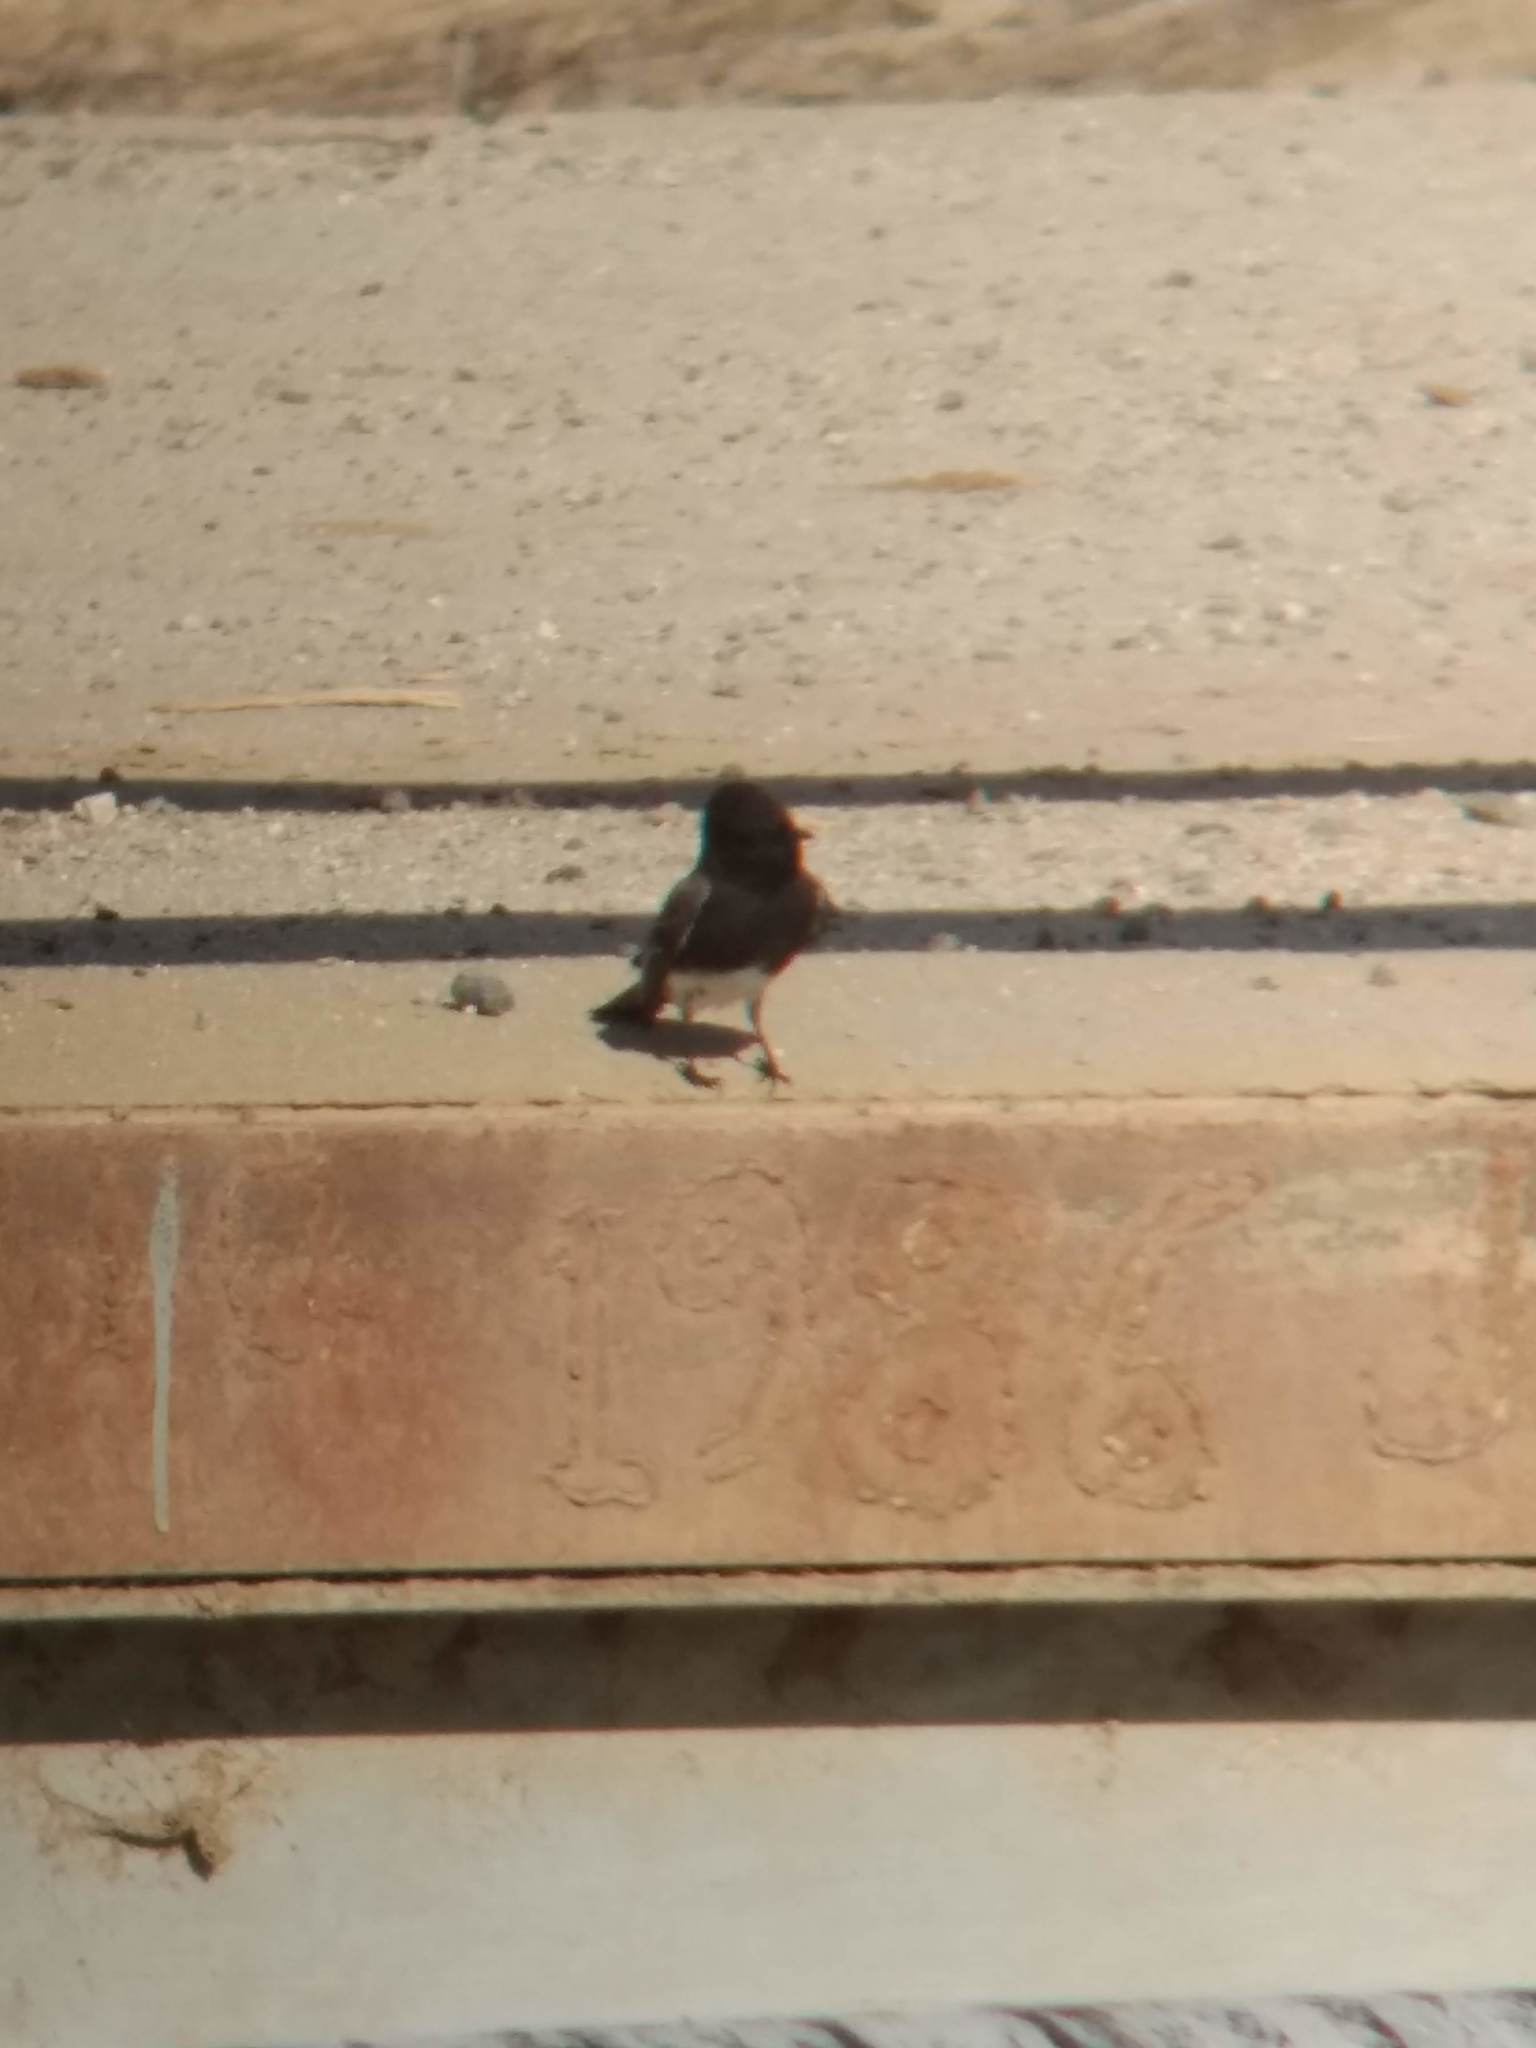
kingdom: Animalia
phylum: Chordata
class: Aves
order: Passeriformes
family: Tyrannidae
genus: Sayornis
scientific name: Sayornis nigricans
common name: Black phoebe
